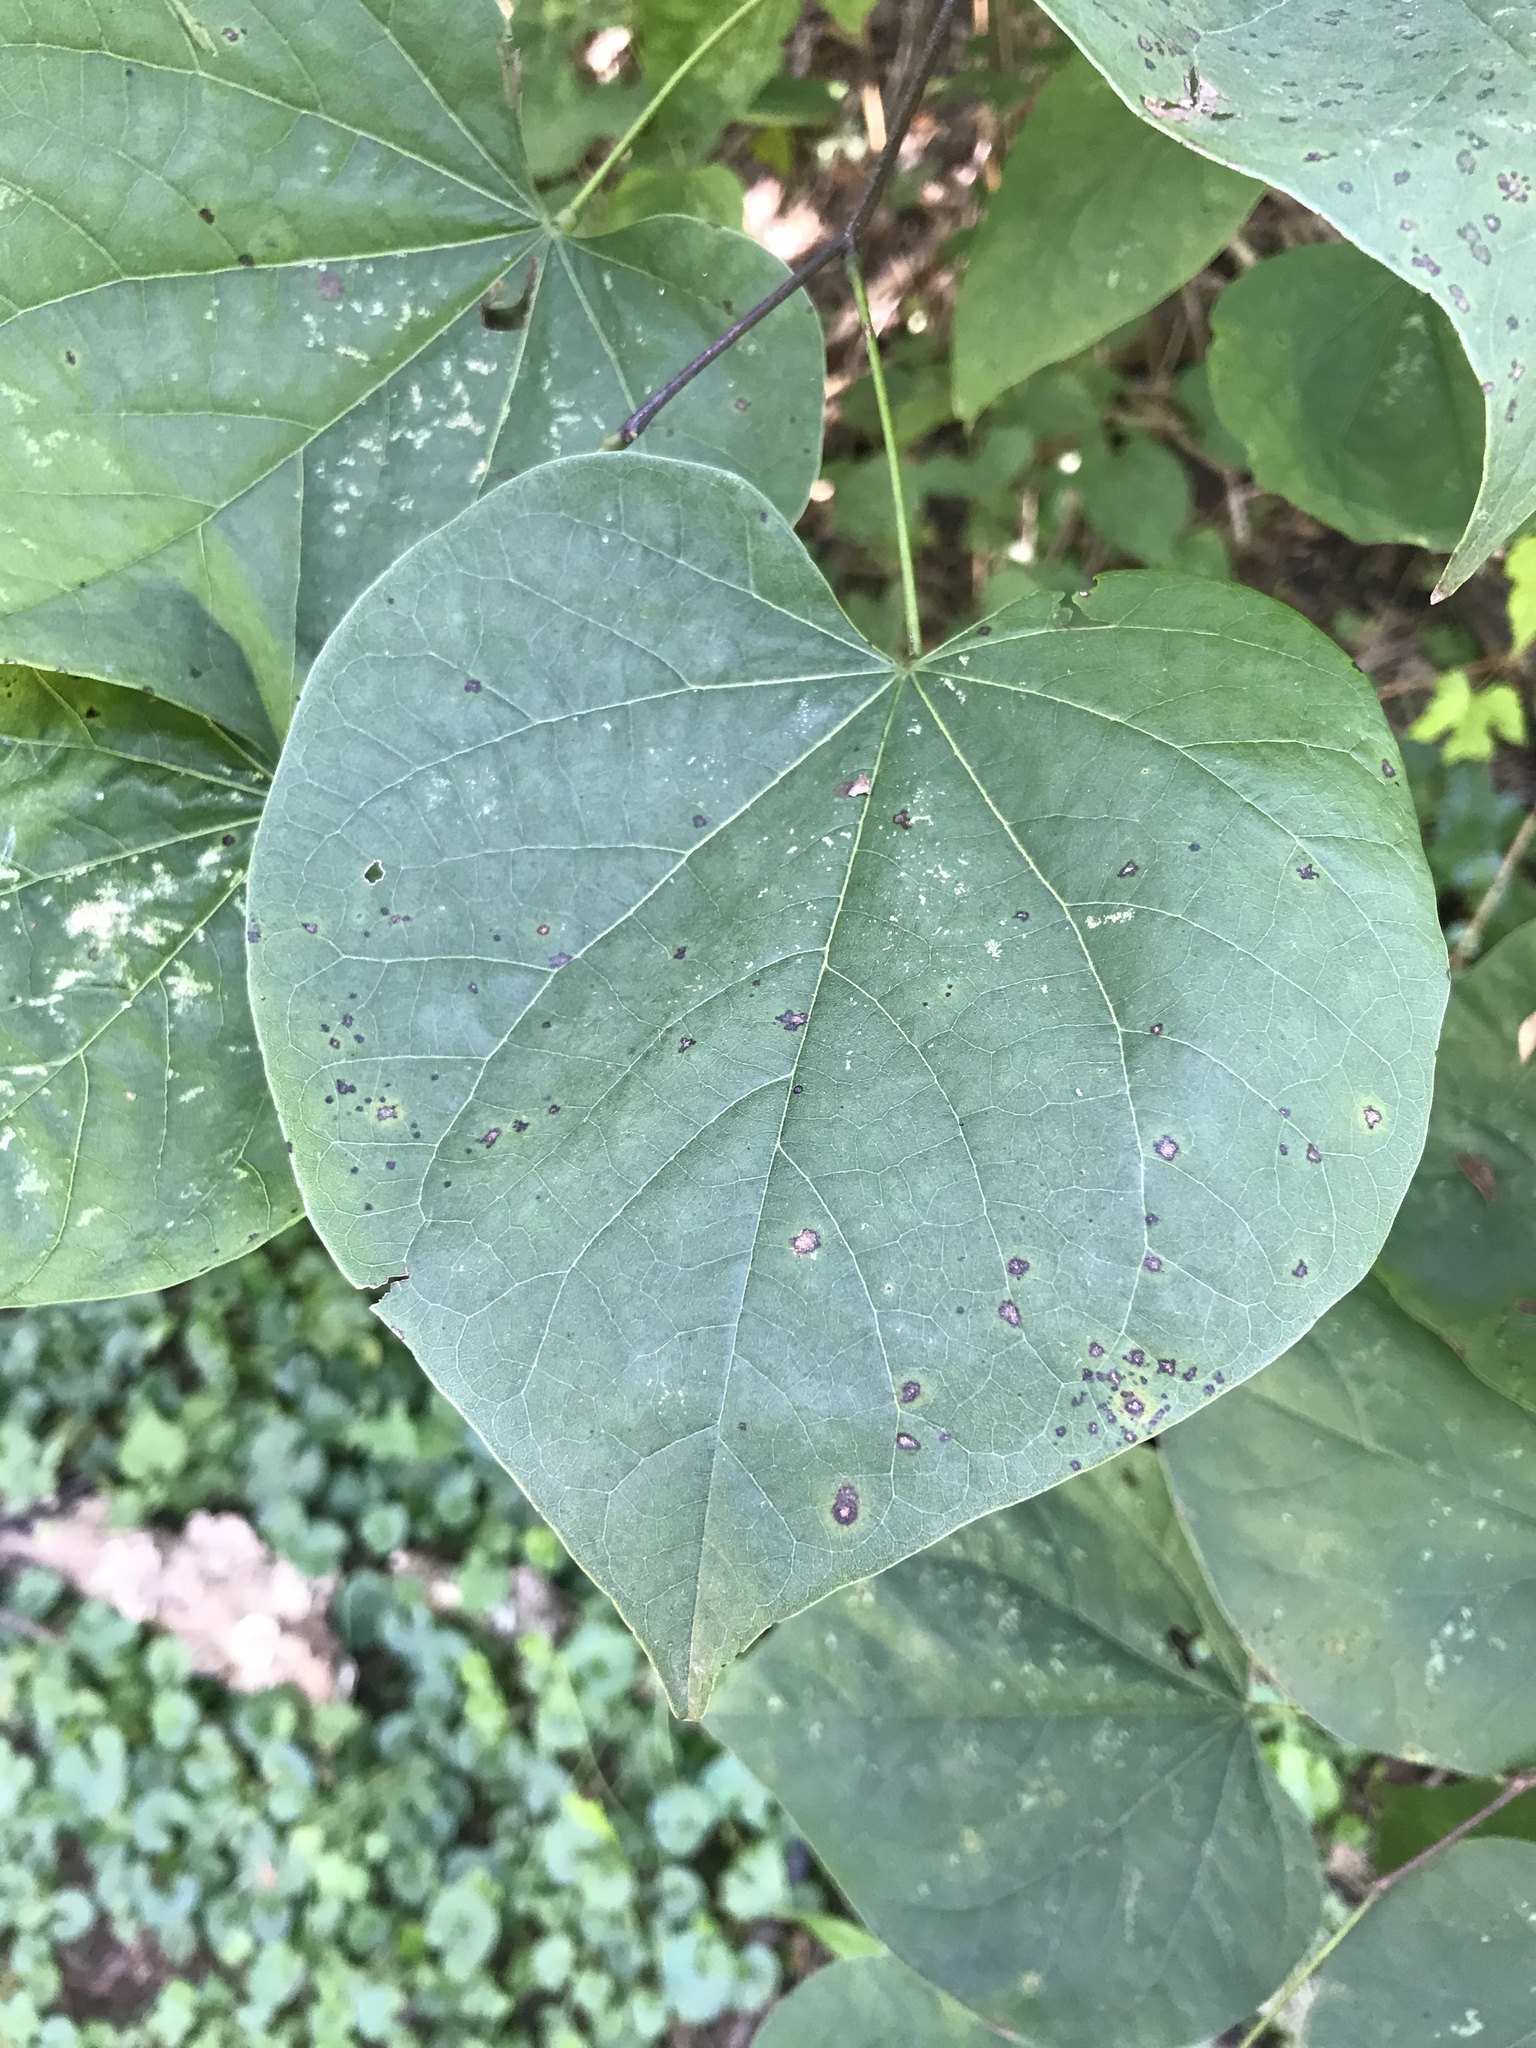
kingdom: Plantae
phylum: Tracheophyta
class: Magnoliopsida
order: Fabales
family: Fabaceae
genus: Cercis
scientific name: Cercis canadensis
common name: Eastern redbud
